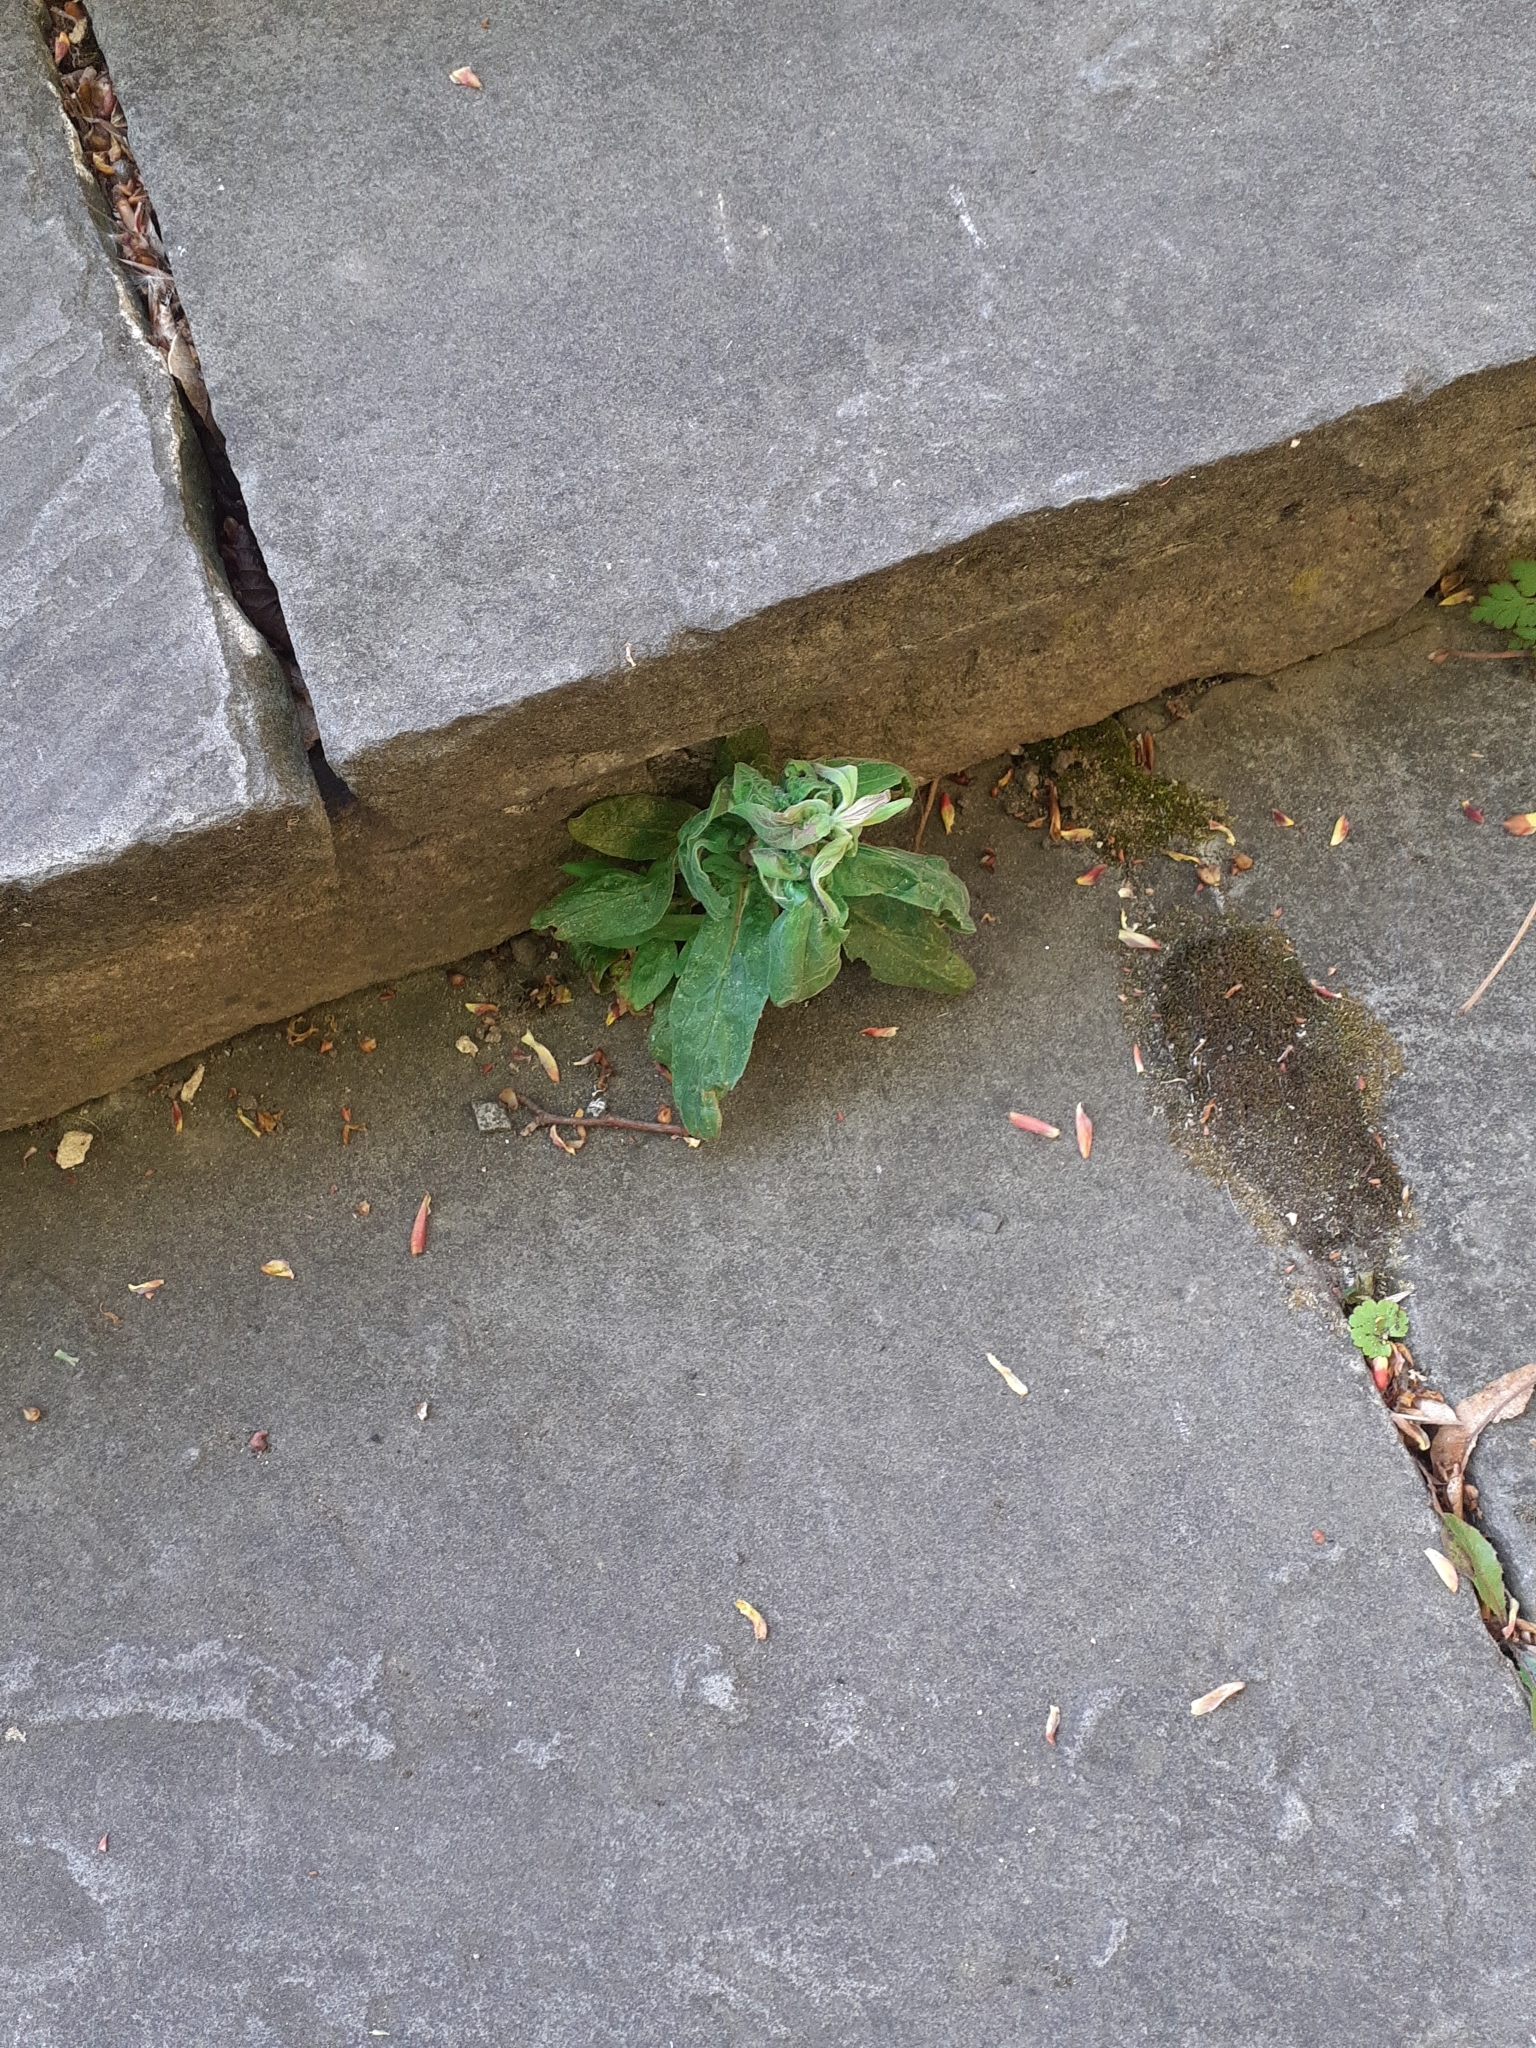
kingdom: Plantae
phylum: Tracheophyta
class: Magnoliopsida
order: Lamiales
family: Scrophulariaceae
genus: Buddleja
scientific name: Buddleja davidii
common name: Butterfly-bush
